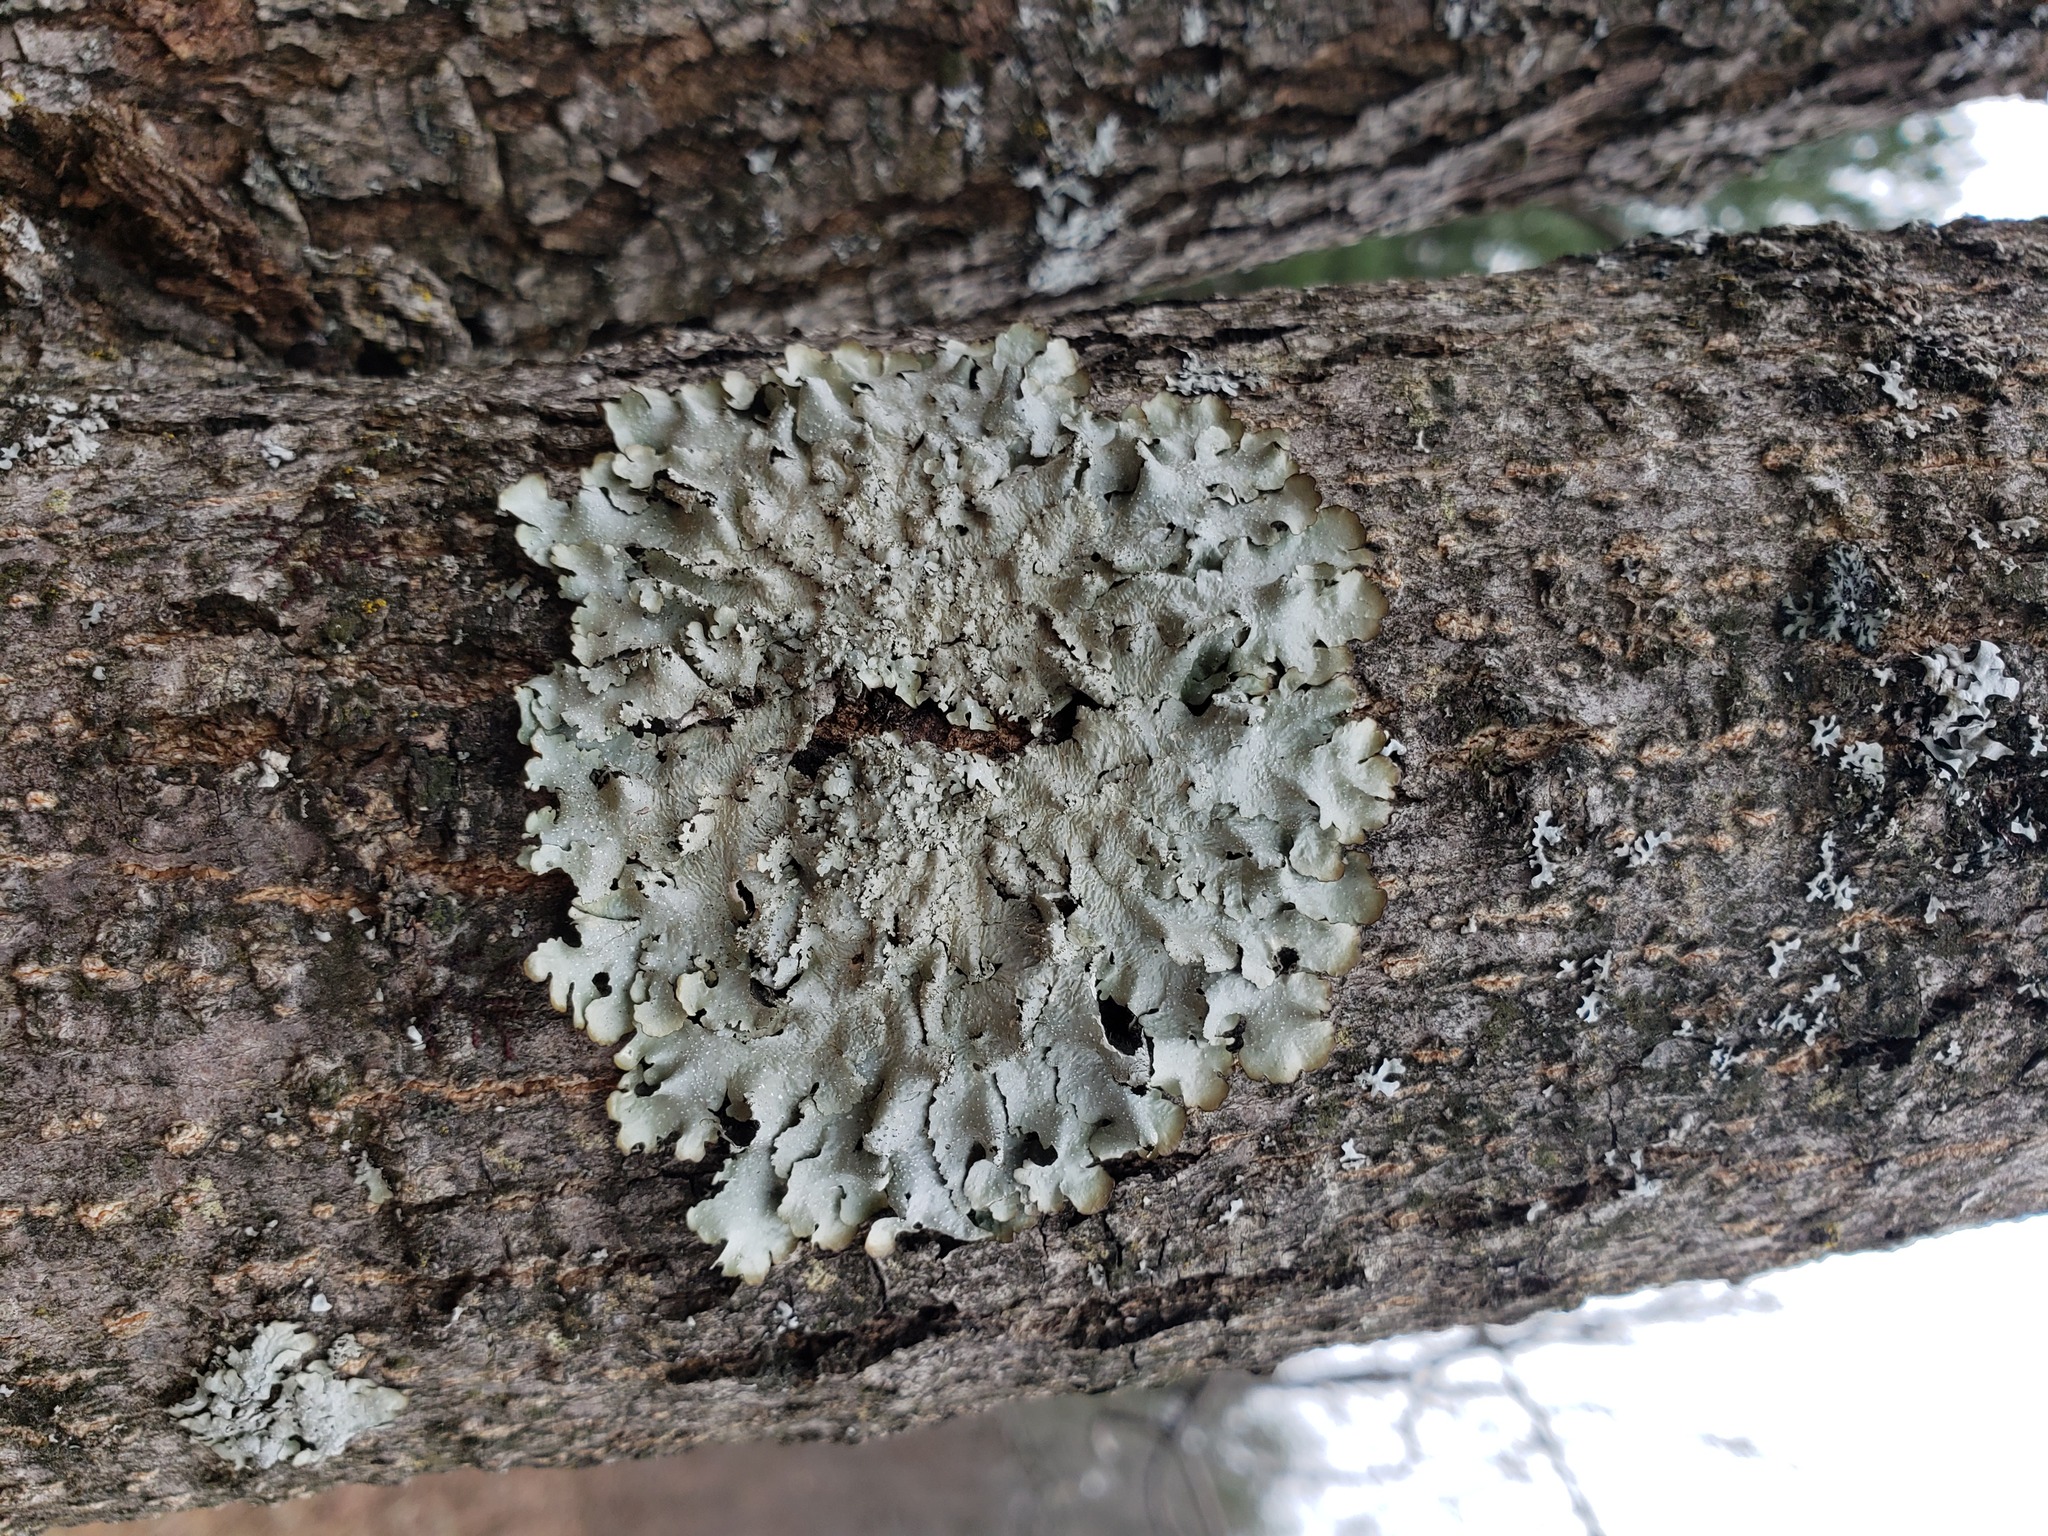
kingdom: Fungi
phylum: Ascomycota
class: Lecanoromycetes
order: Lecanorales
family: Parmeliaceae
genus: Punctelia
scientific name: Punctelia rudecta
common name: Rough speckled shield lichen
